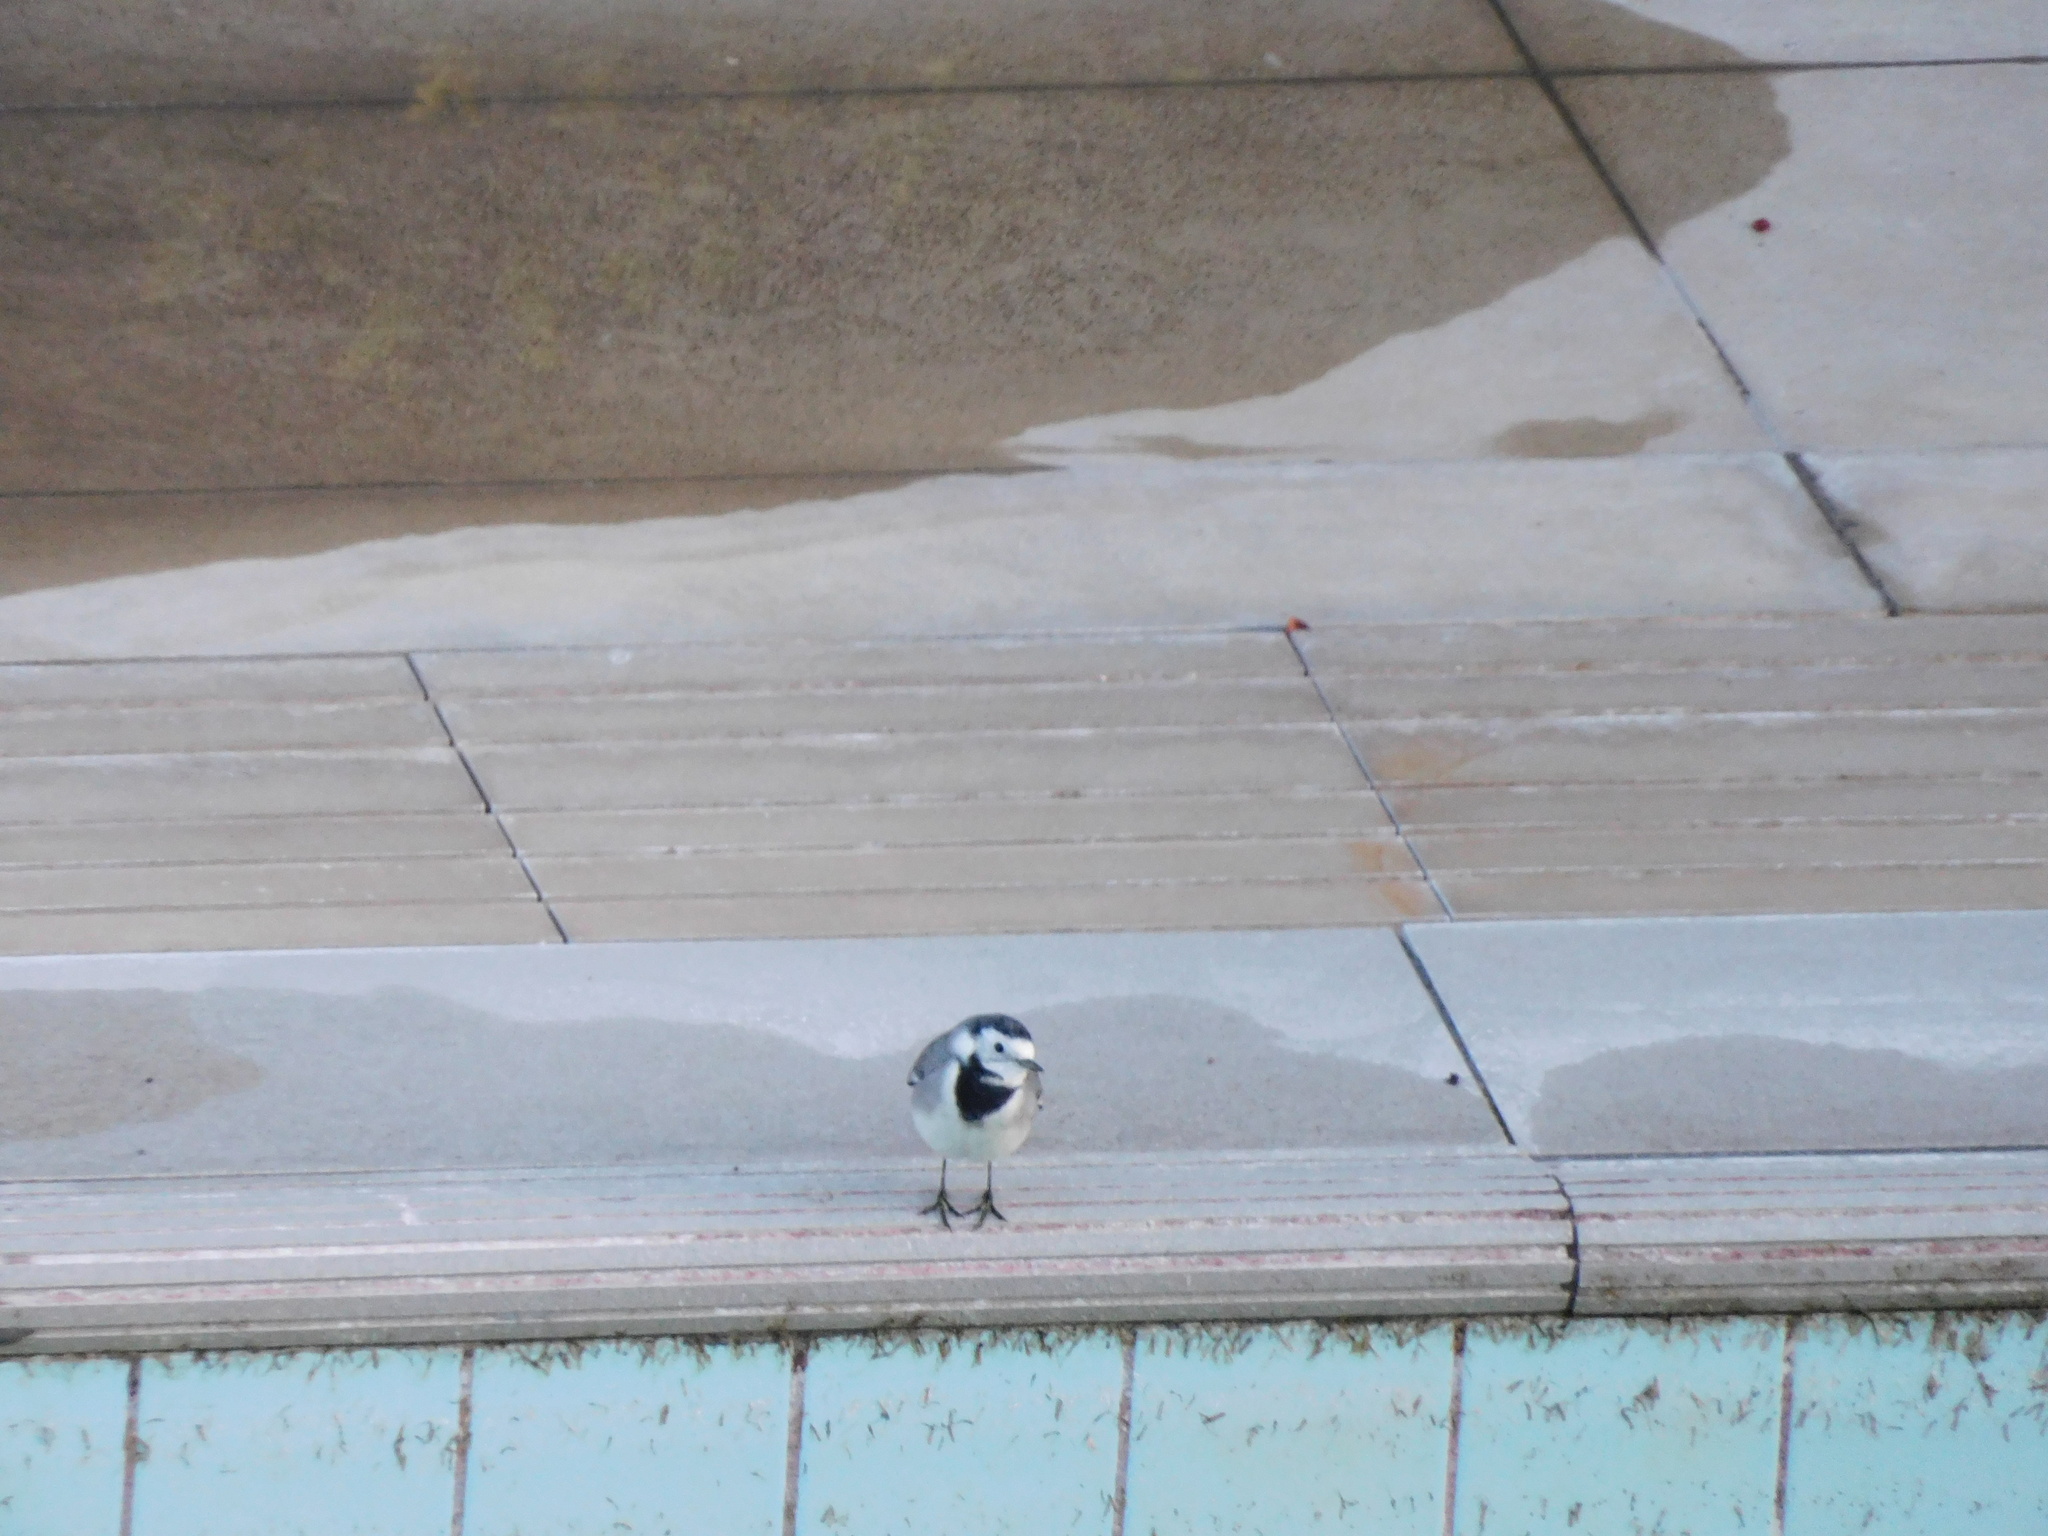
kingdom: Animalia
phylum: Chordata
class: Aves
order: Passeriformes
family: Motacillidae
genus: Motacilla
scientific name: Motacilla alba
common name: White wagtail
